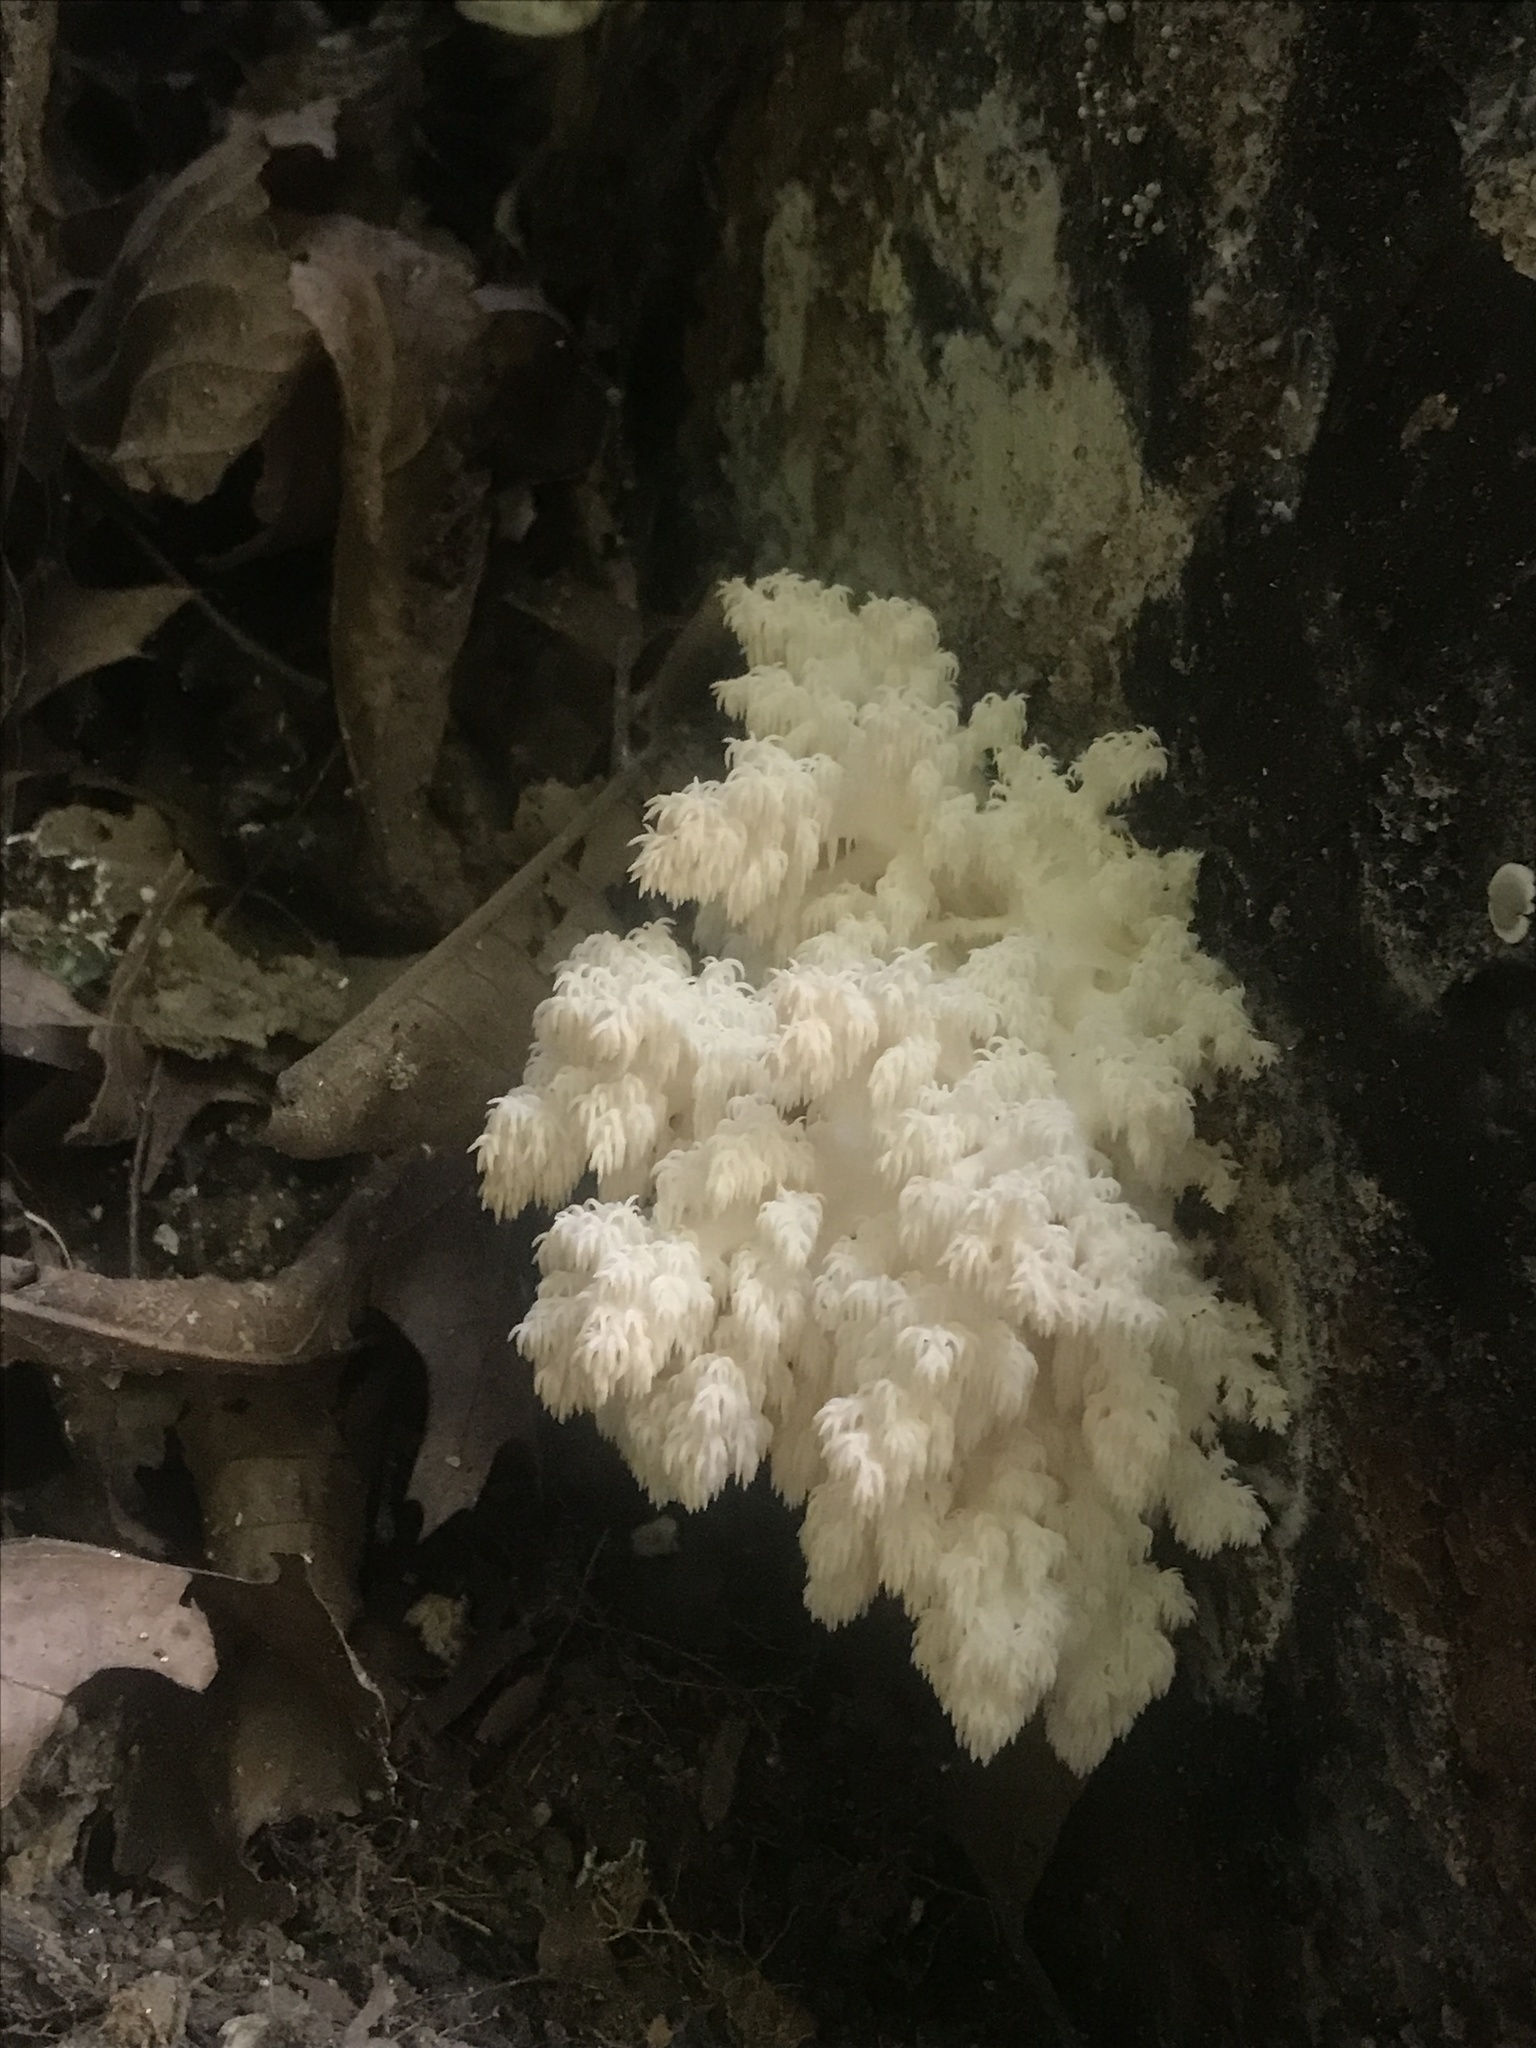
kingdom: Fungi
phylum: Basidiomycota
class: Agaricomycetes
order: Russulales
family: Hericiaceae
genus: Hericium
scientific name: Hericium coralloides
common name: Coral tooth
